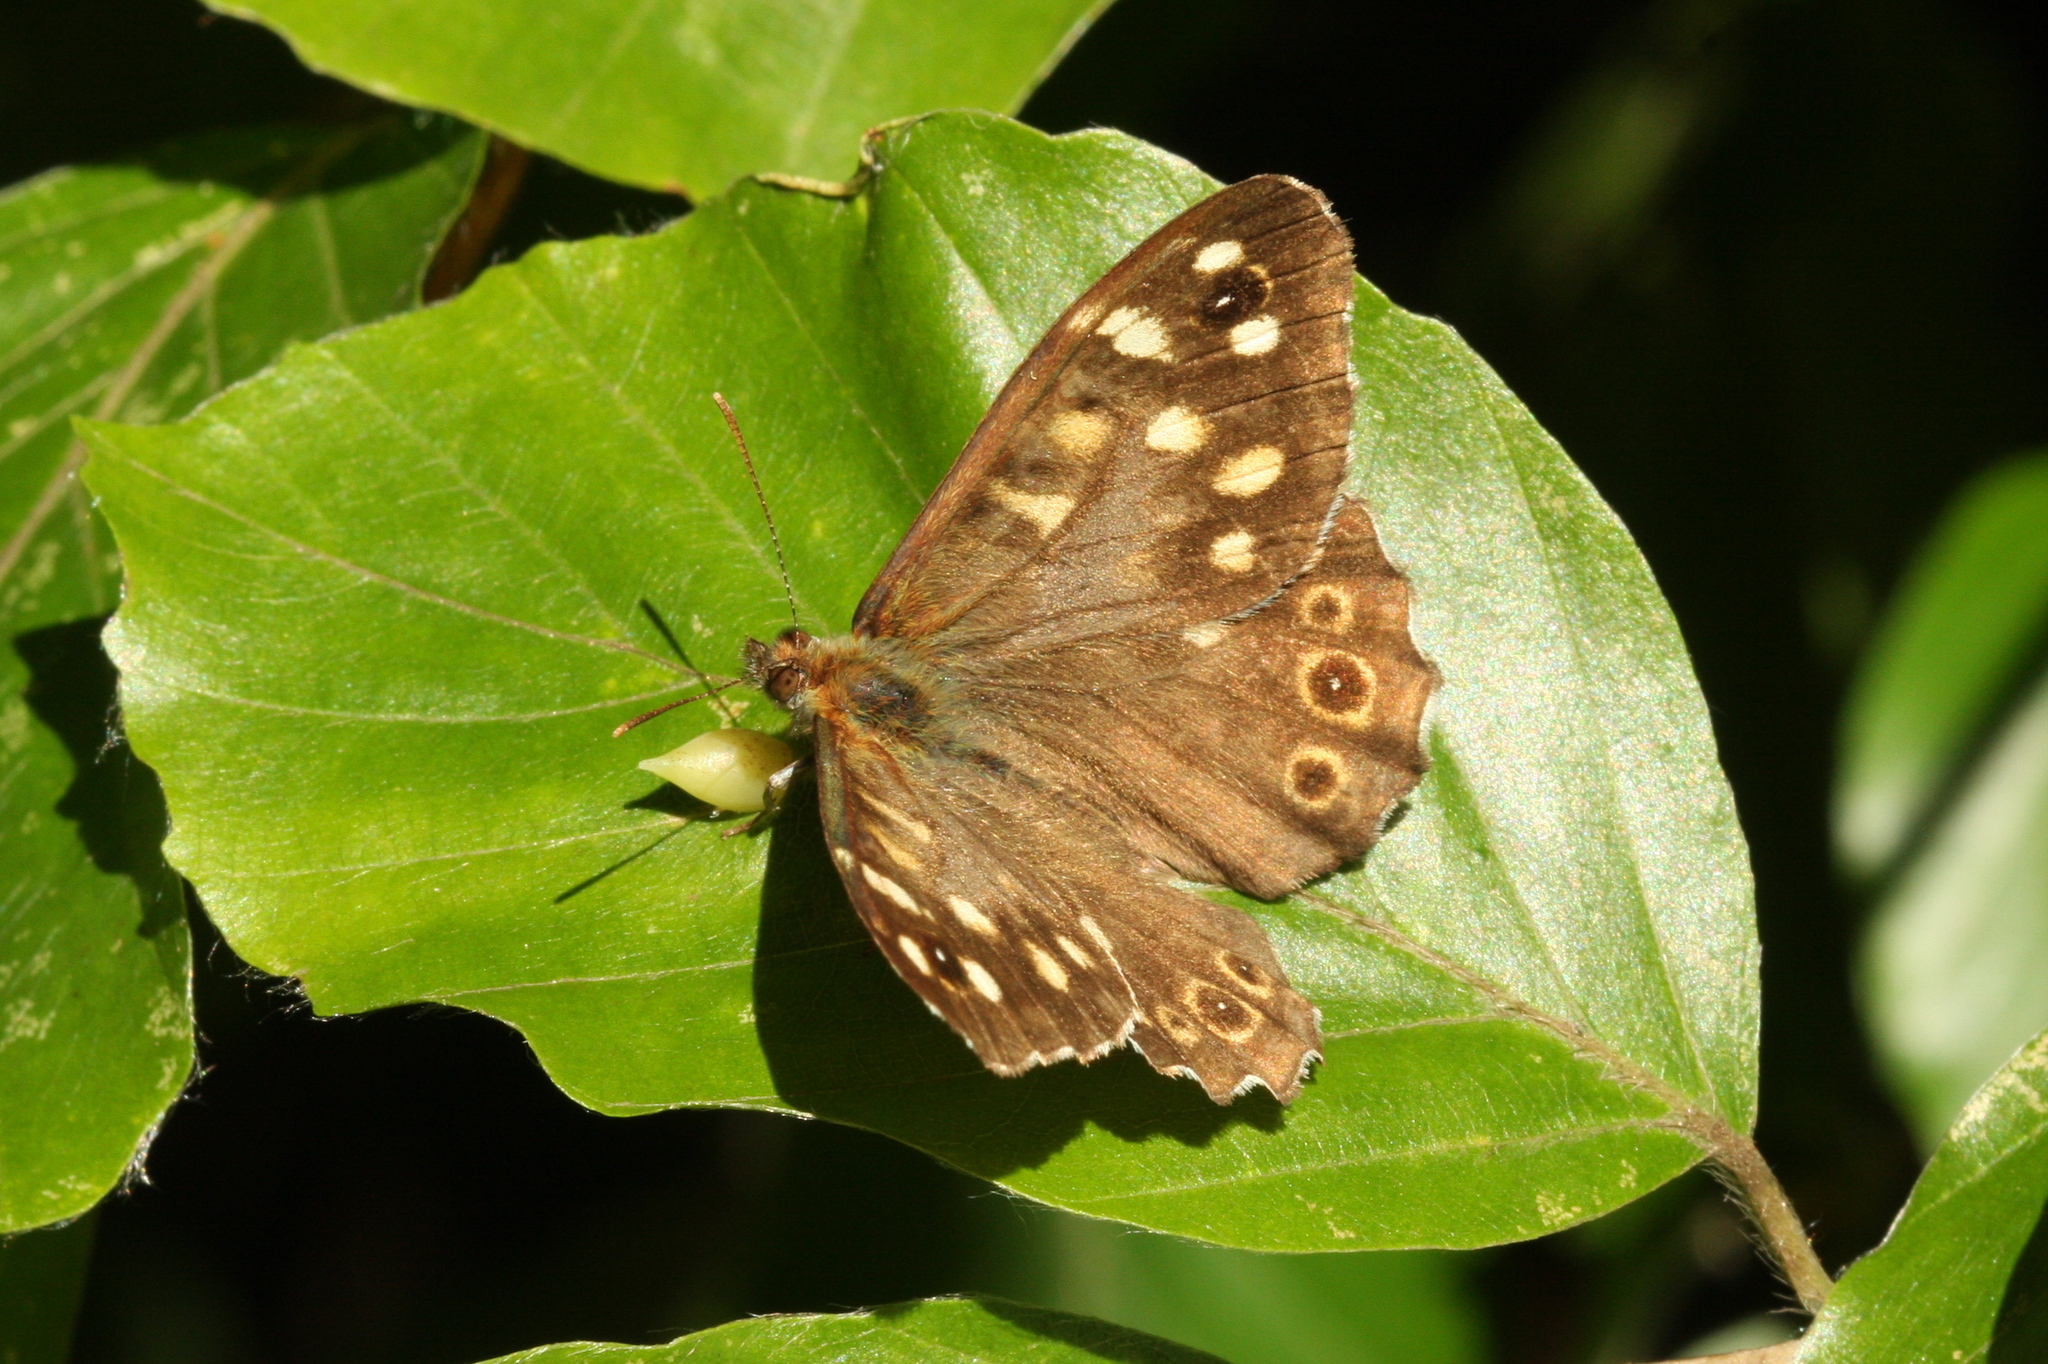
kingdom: Animalia
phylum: Arthropoda
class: Insecta
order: Lepidoptera
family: Nymphalidae
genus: Pararge
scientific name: Pararge aegeria
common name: Speckled wood
